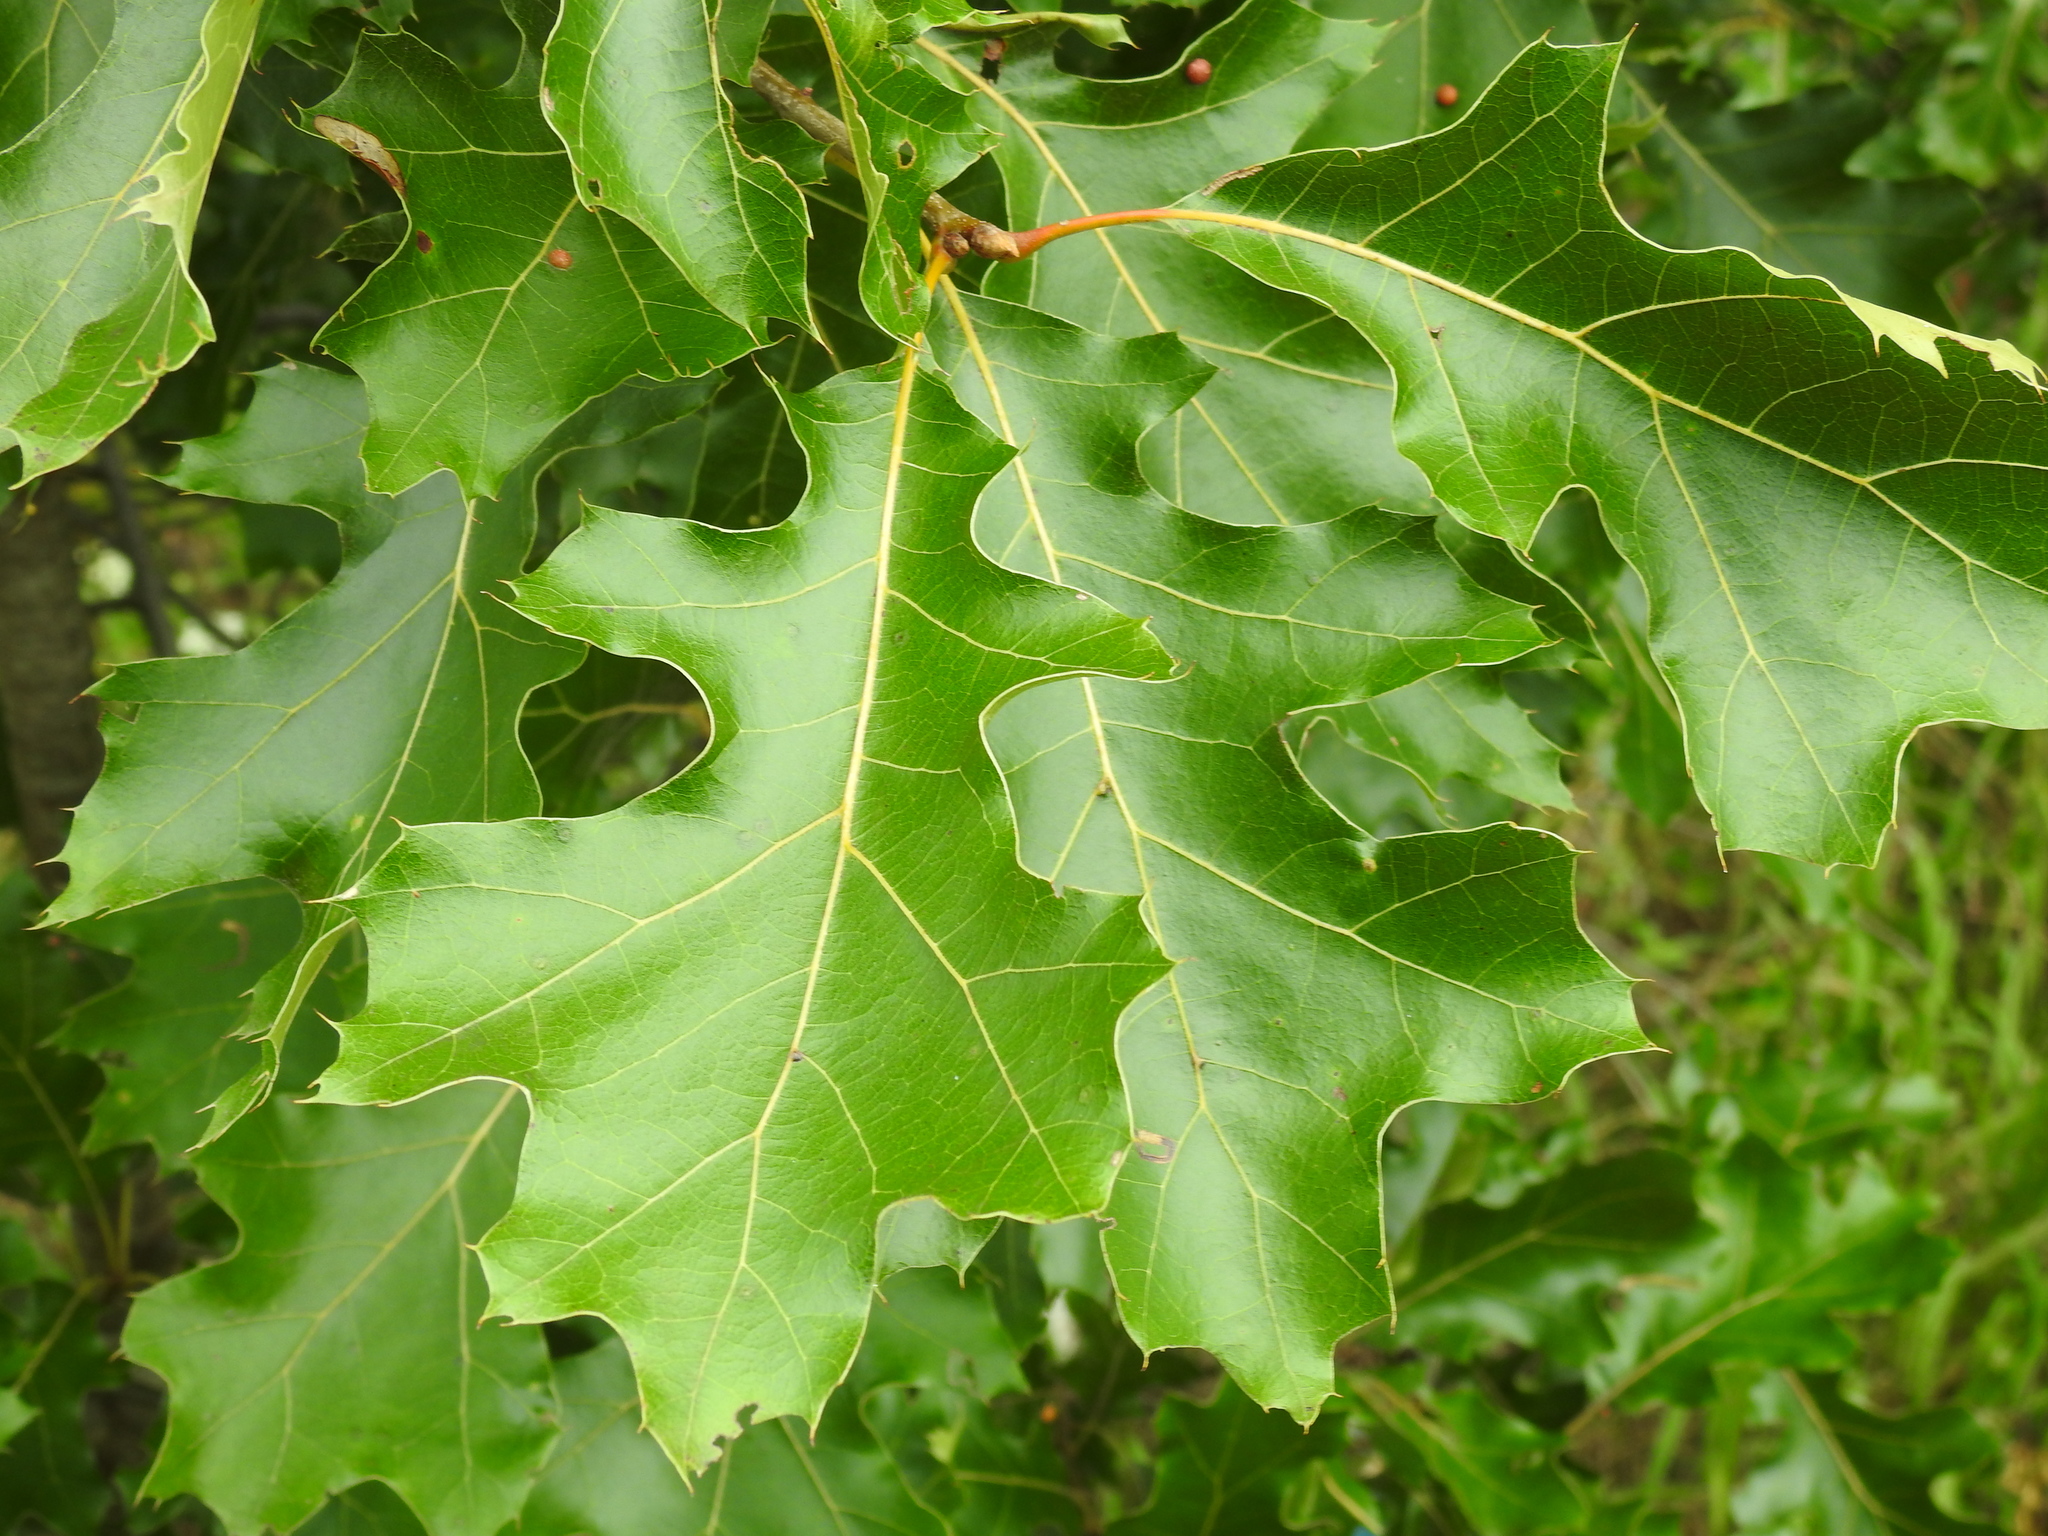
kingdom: Plantae
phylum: Tracheophyta
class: Magnoliopsida
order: Fagales
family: Fagaceae
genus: Quercus
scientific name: Quercus velutina
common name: Black oak
